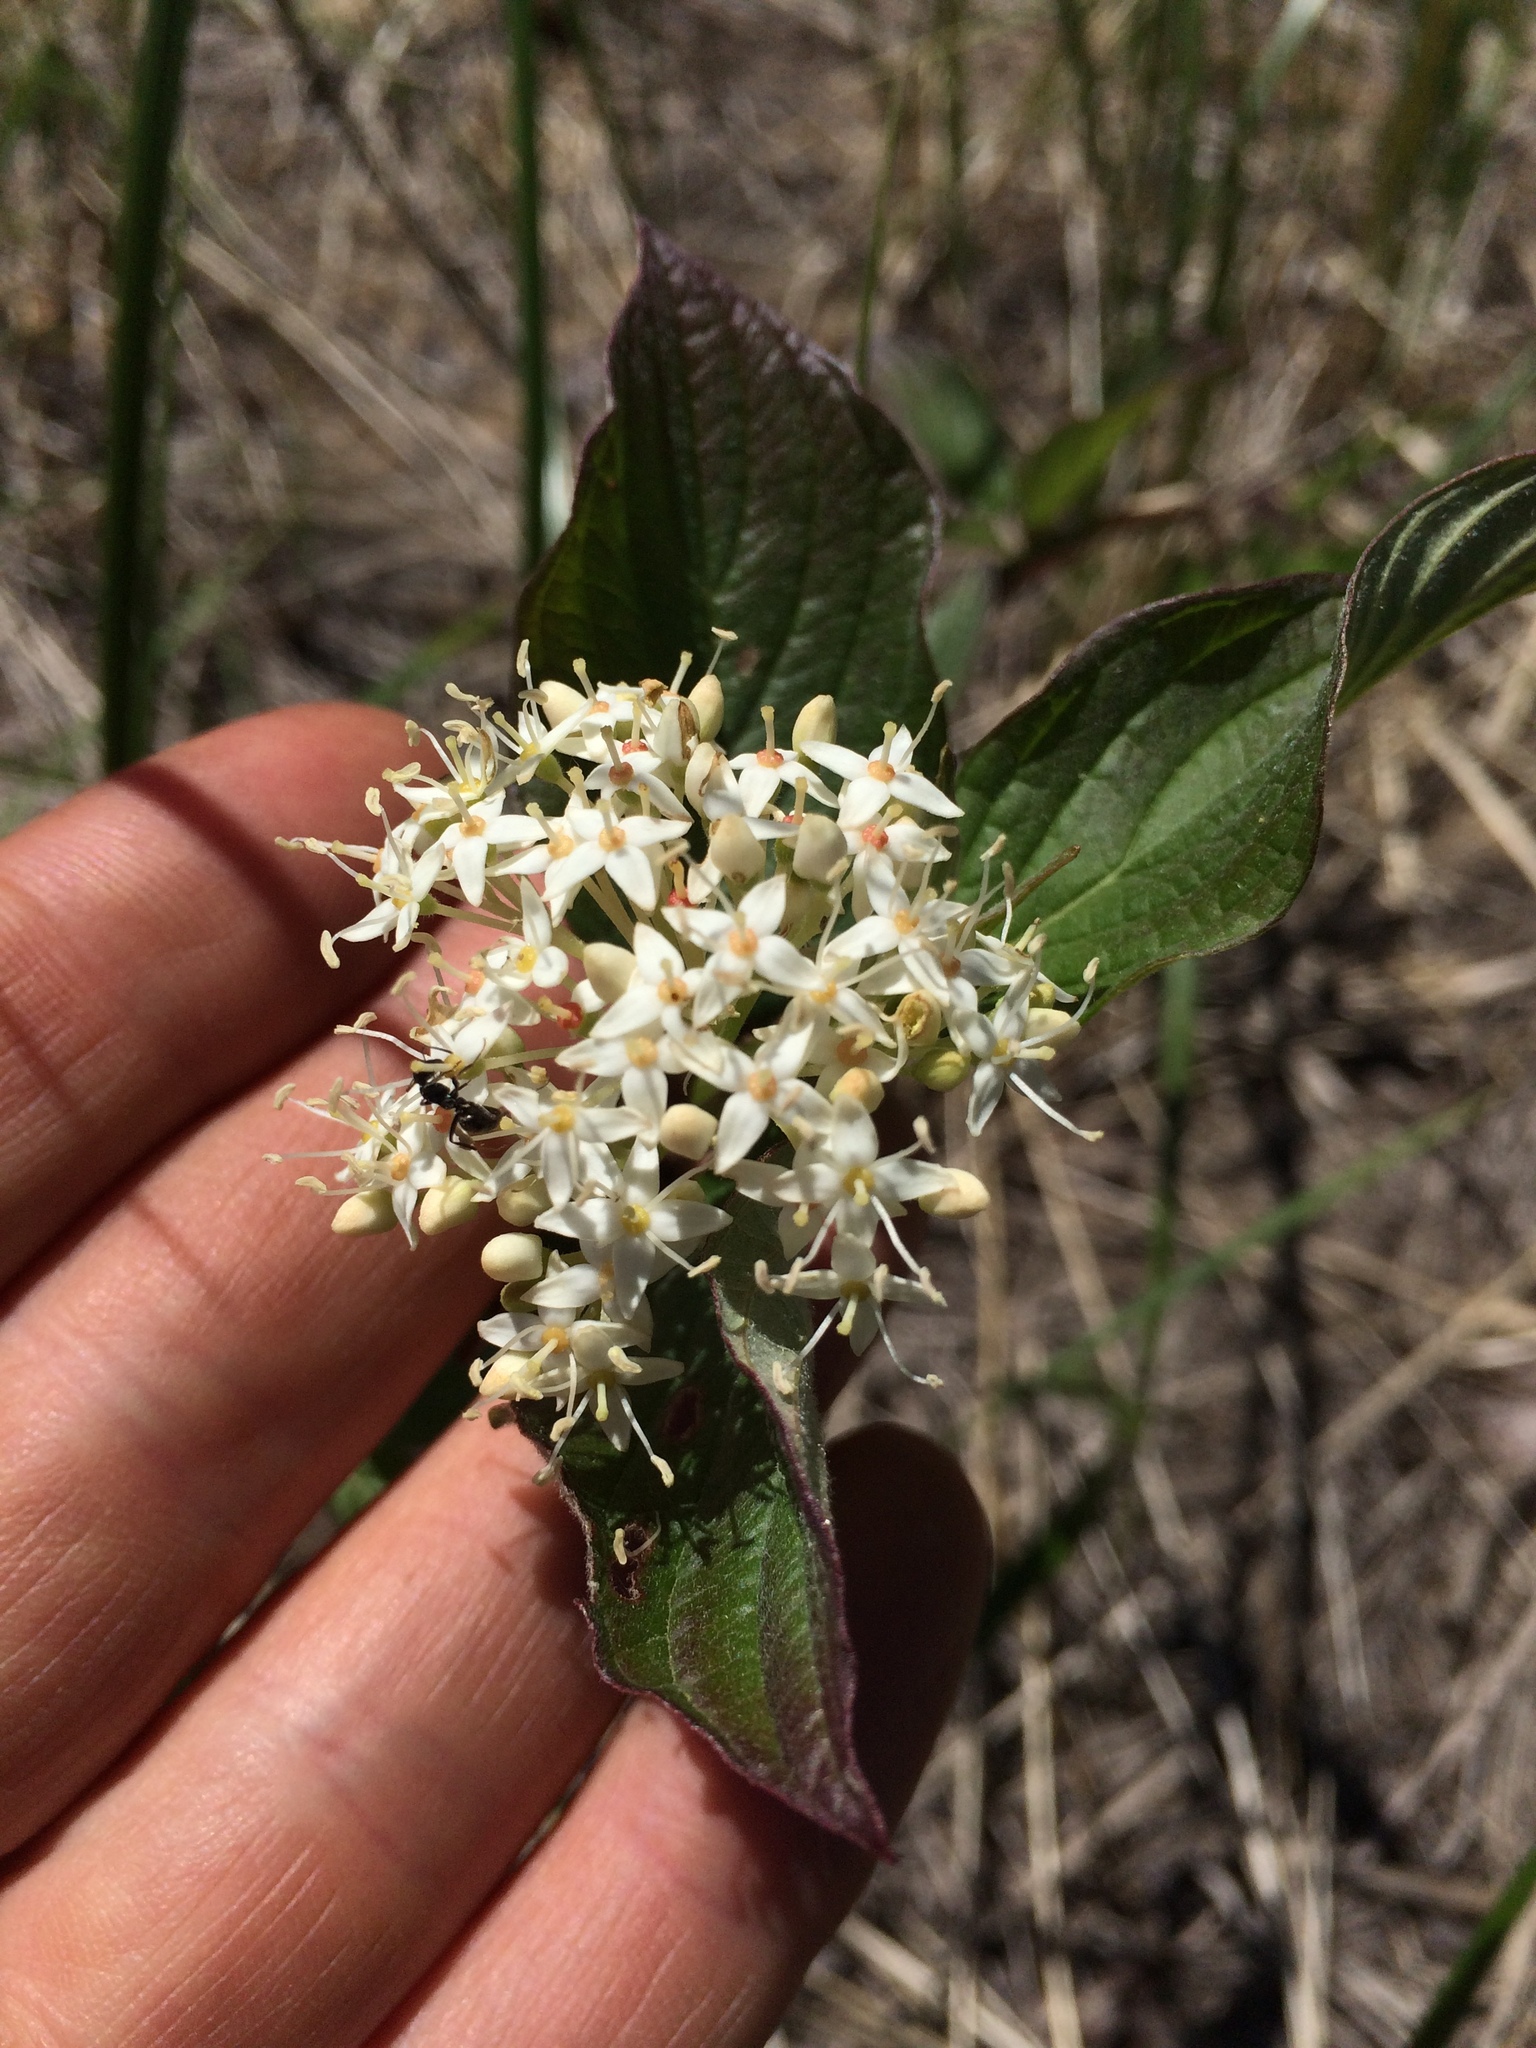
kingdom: Plantae
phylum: Tracheophyta
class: Magnoliopsida
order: Cornales
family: Cornaceae
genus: Cornus
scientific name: Cornus sericea
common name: Red-osier dogwood
